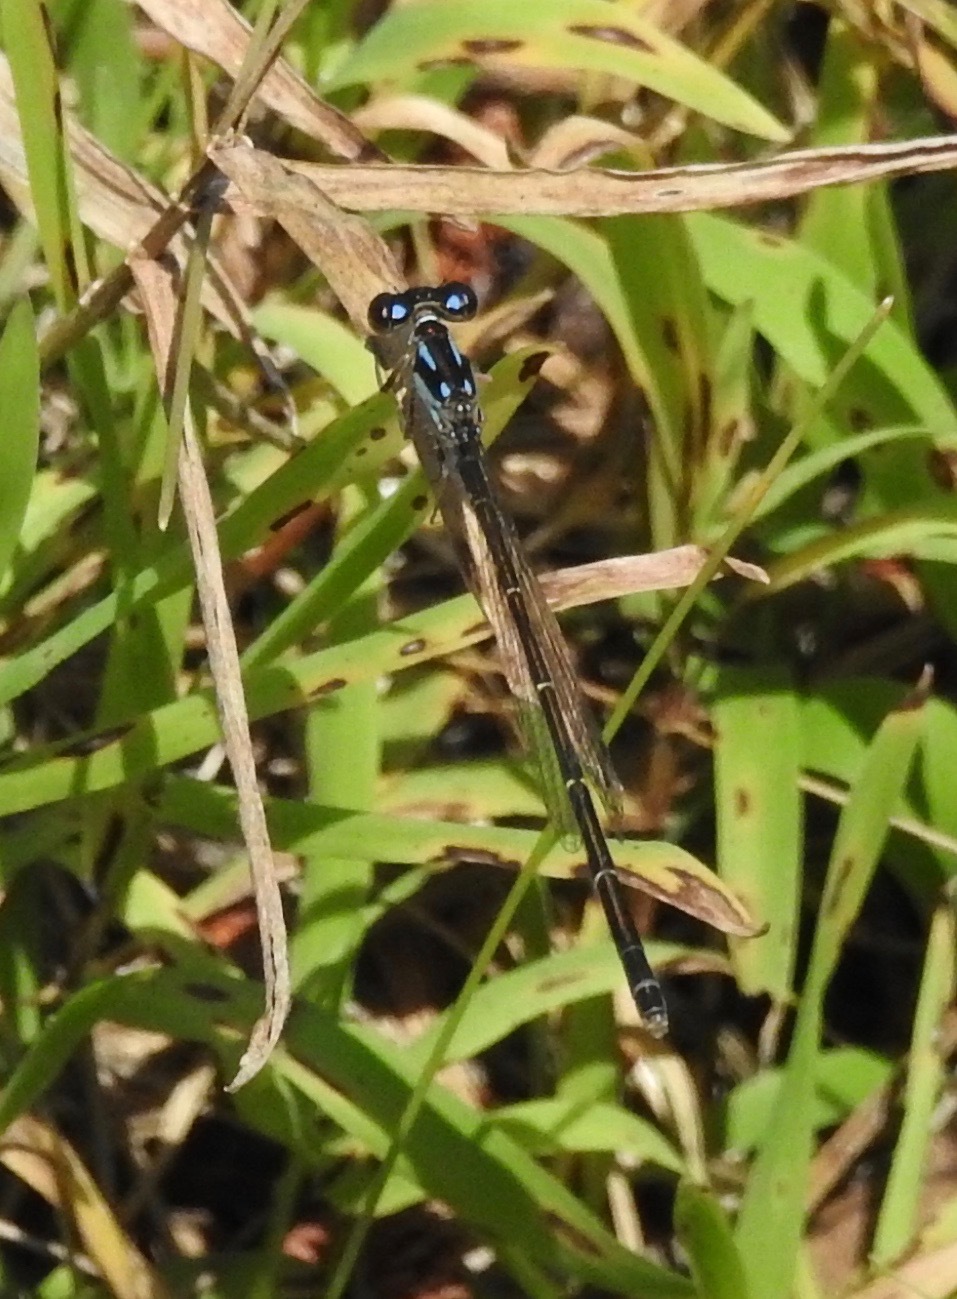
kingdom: Animalia
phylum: Arthropoda
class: Insecta
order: Odonata
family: Coenagrionidae
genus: Ischnura
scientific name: Ischnura posita
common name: Fragile forktail
